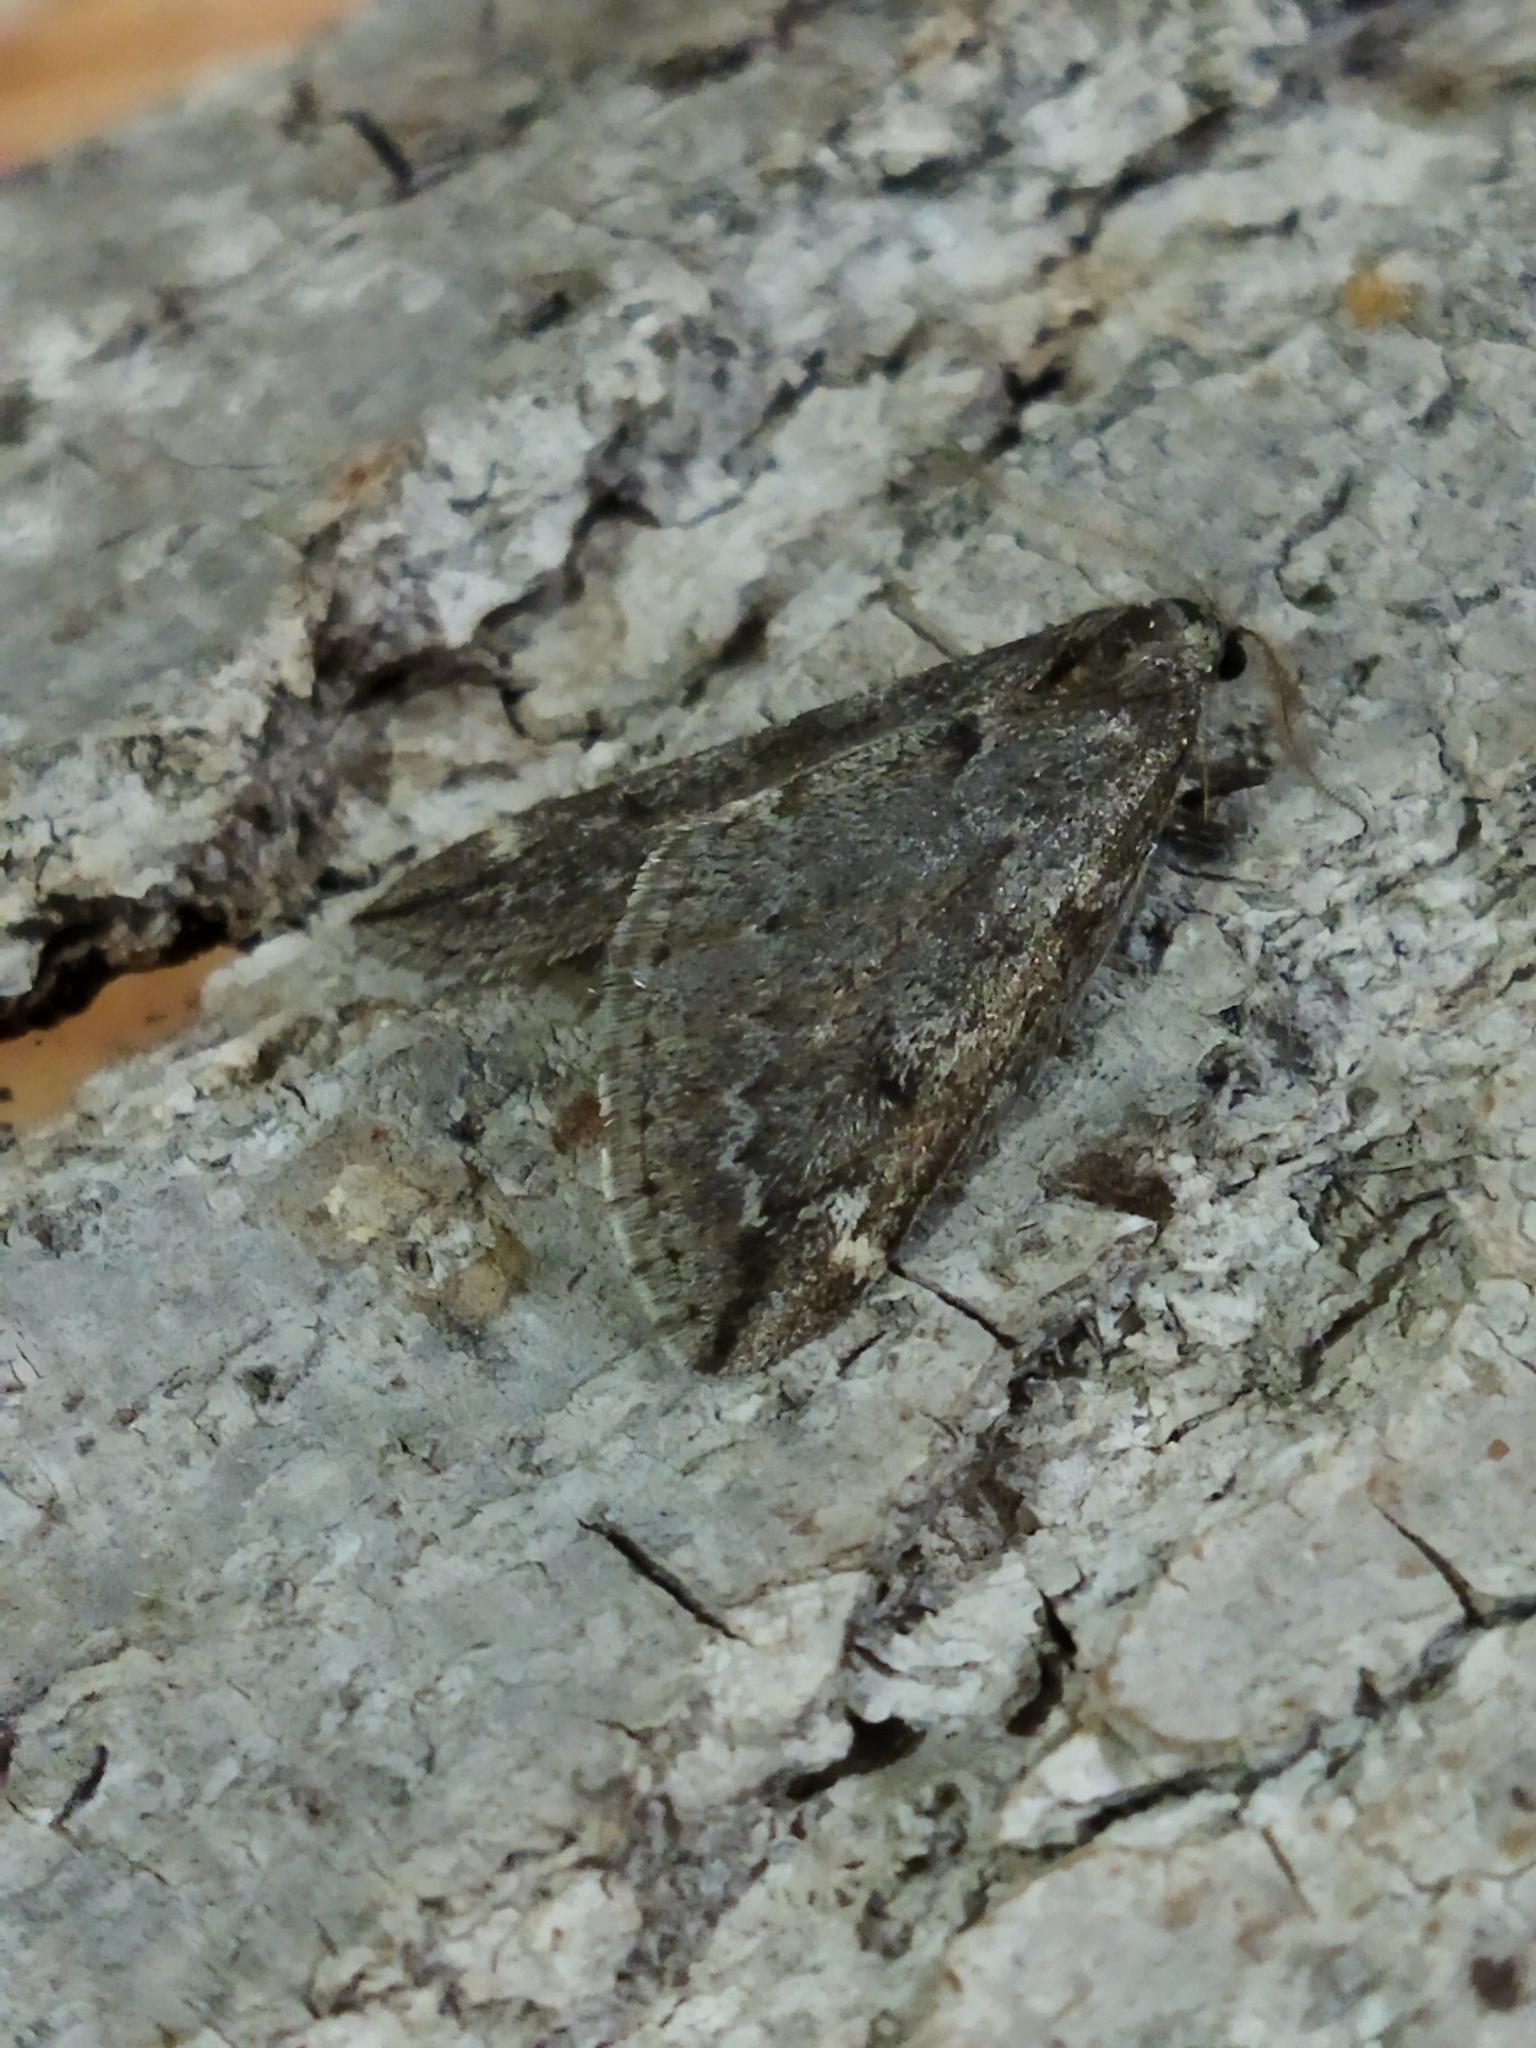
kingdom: Animalia
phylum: Arthropoda
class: Insecta
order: Lepidoptera
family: Geometridae
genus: Alsophila
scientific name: Alsophila aescularia
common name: March moth
